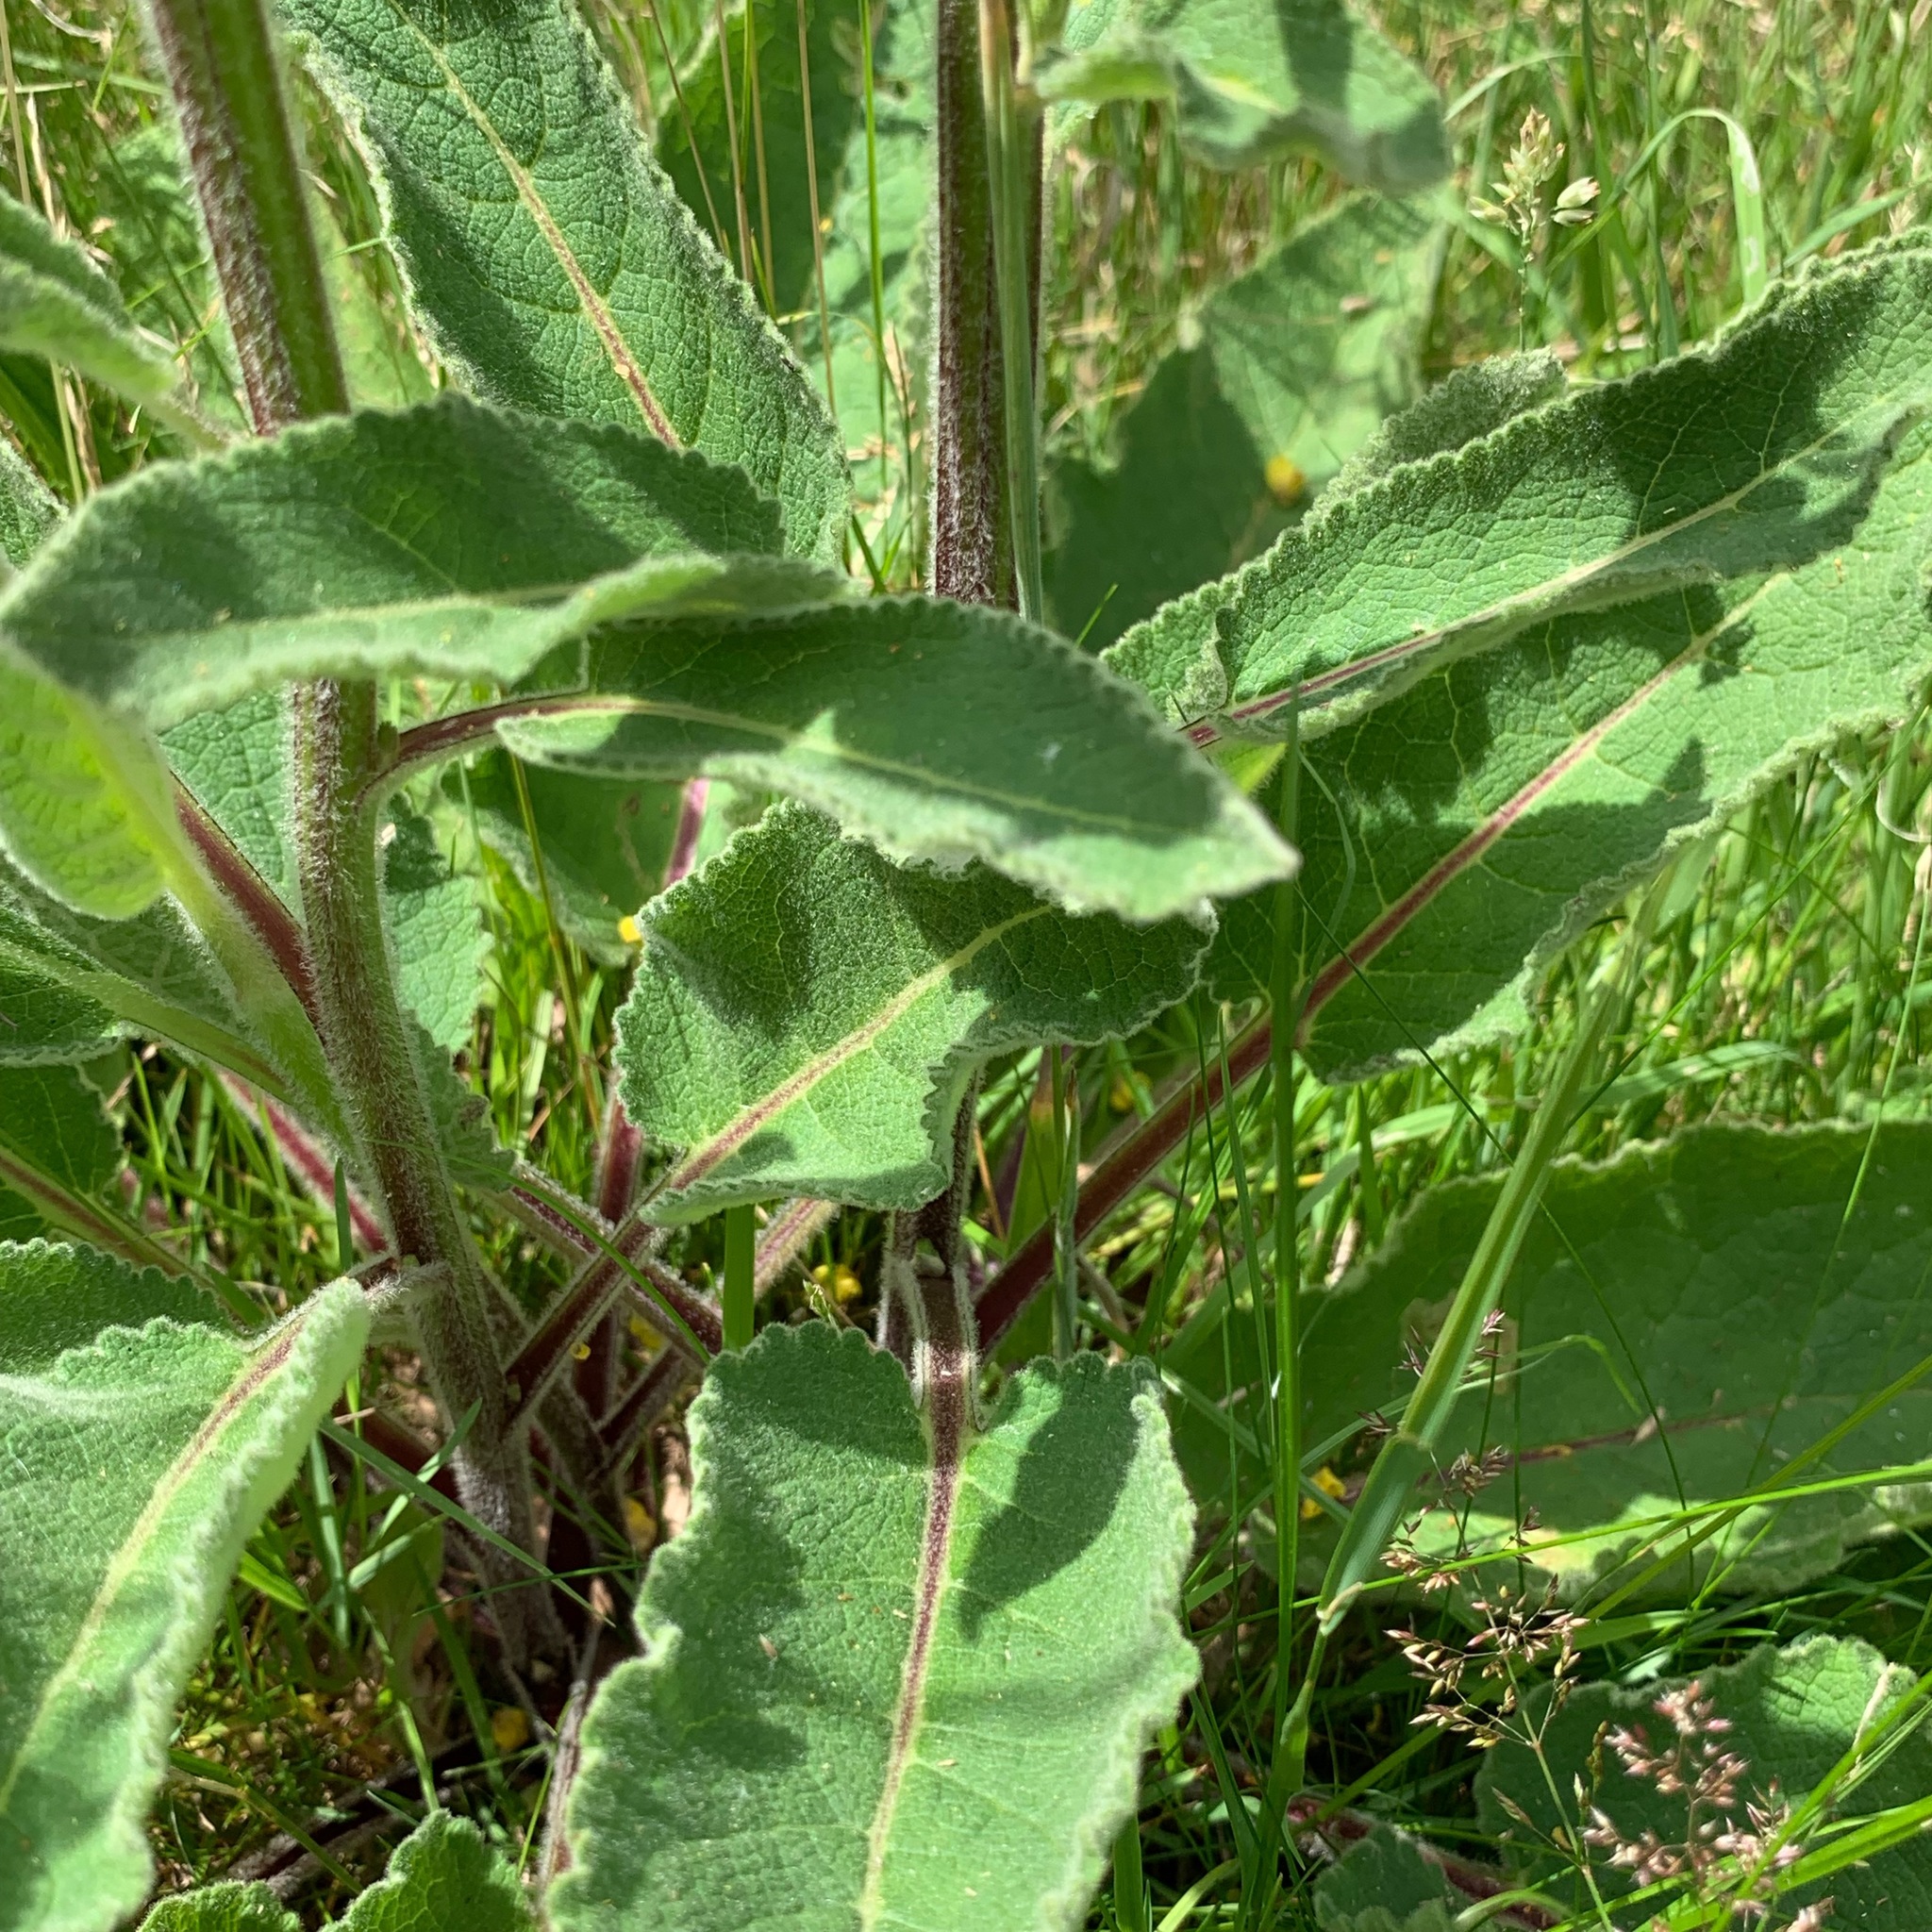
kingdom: Plantae
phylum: Tracheophyta
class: Magnoliopsida
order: Lamiales
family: Scrophulariaceae
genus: Verbascum
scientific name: Verbascum nigrum
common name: Dark mullein
